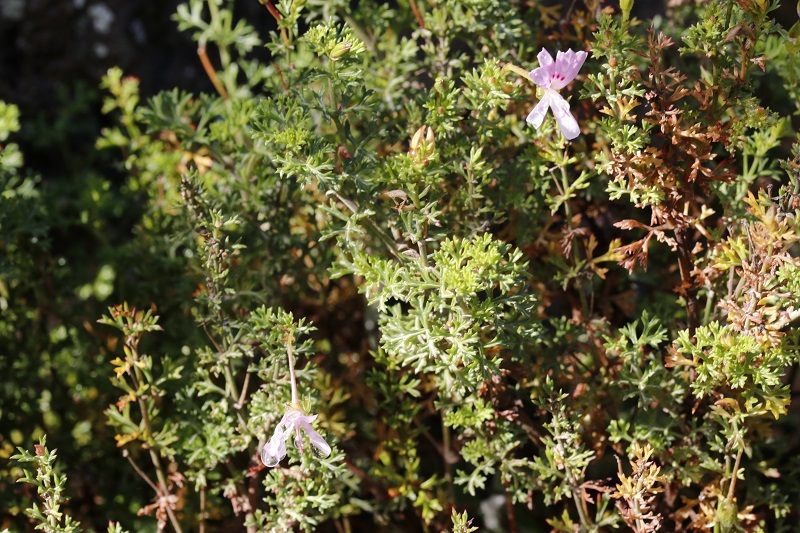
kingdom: Plantae
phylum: Tracheophyta
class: Magnoliopsida
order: Geraniales
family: Geraniaceae
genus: Pelargonium
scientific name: Pelargonium fruticosum
